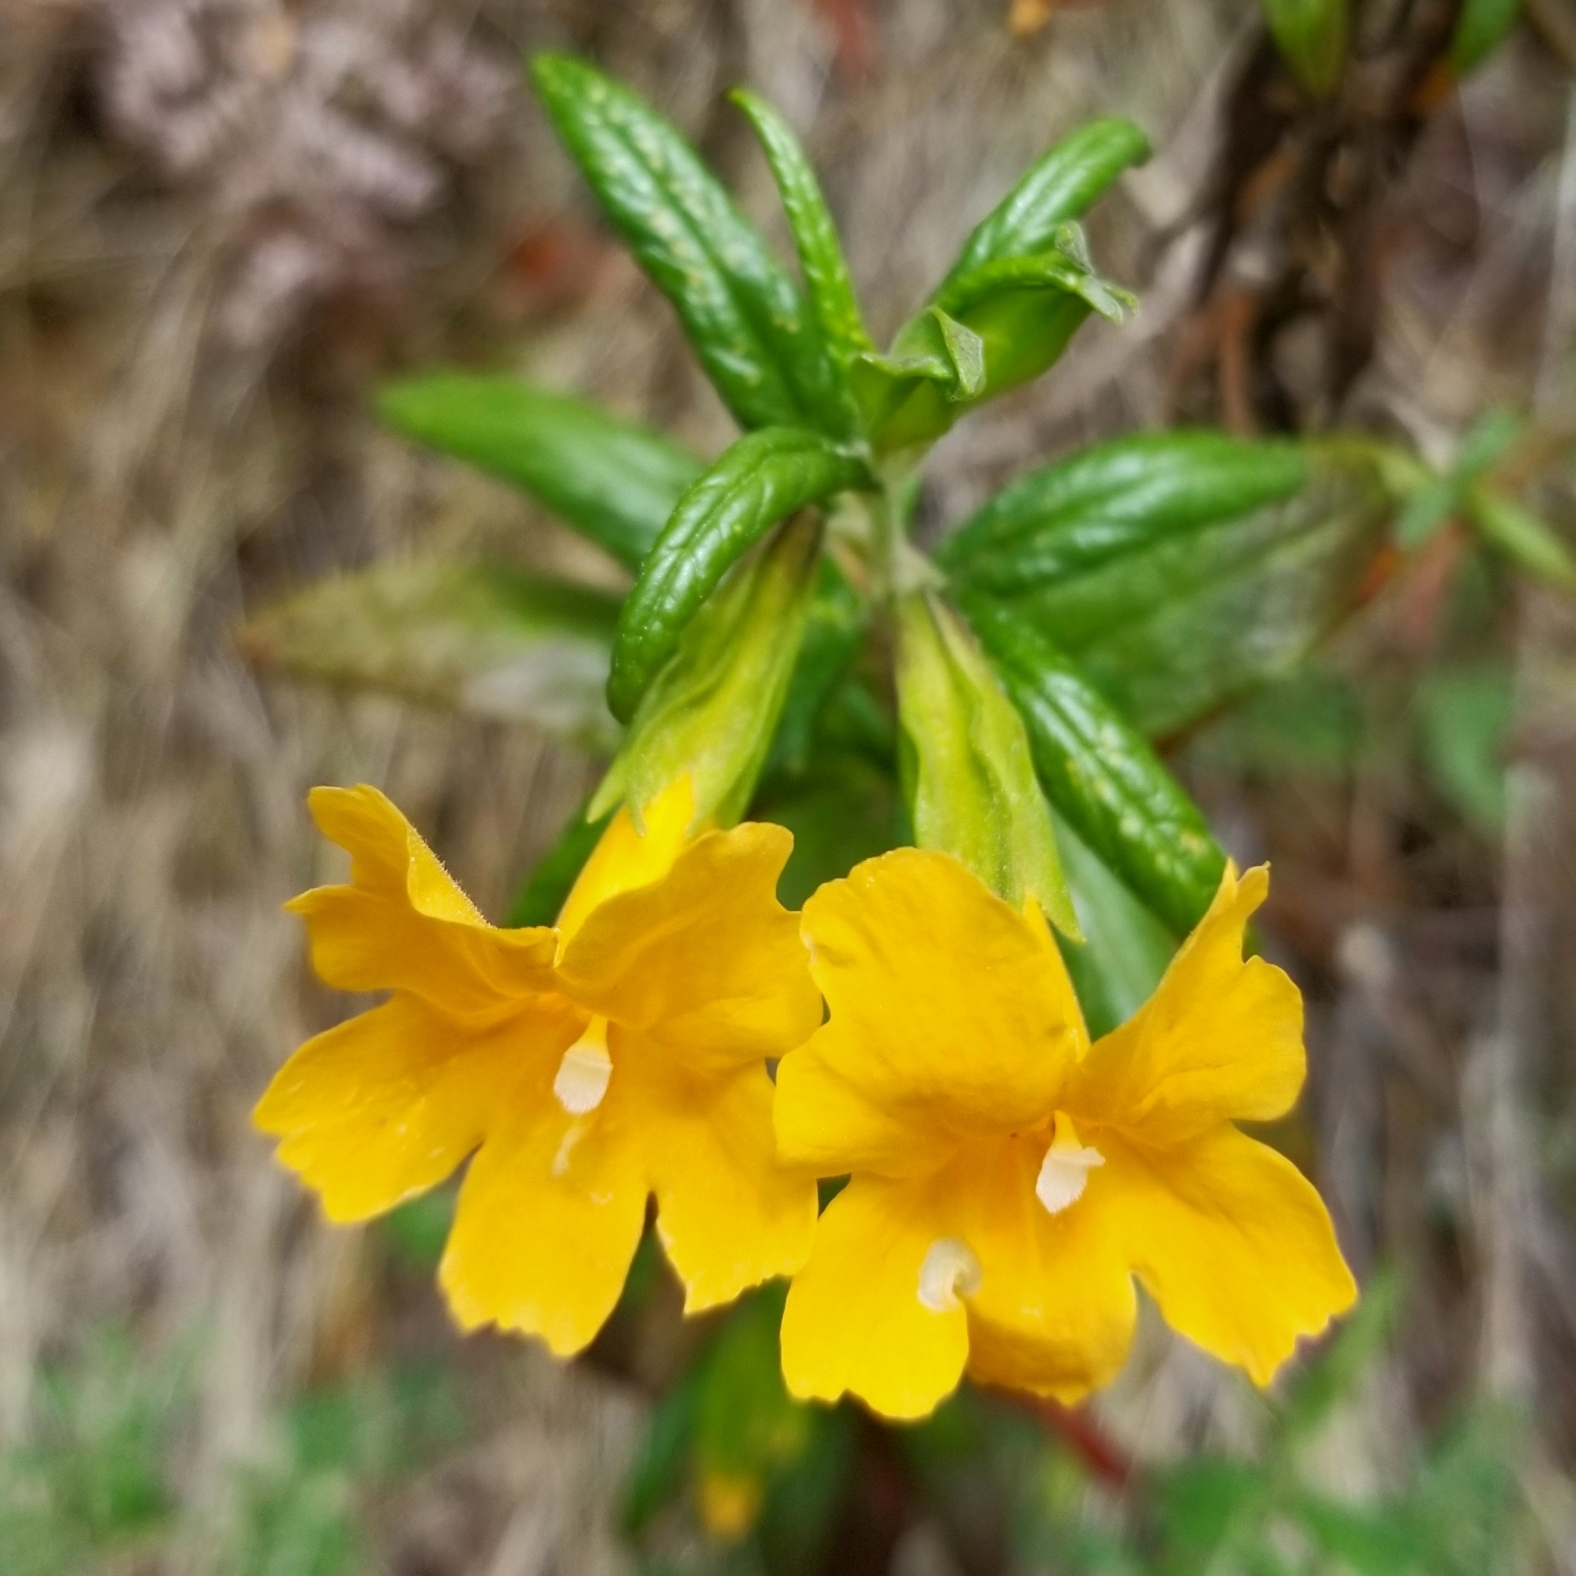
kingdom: Plantae
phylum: Tracheophyta
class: Magnoliopsida
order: Lamiales
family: Phrymaceae
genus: Diplacus
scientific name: Diplacus aurantiacus
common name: Bush monkey-flower
